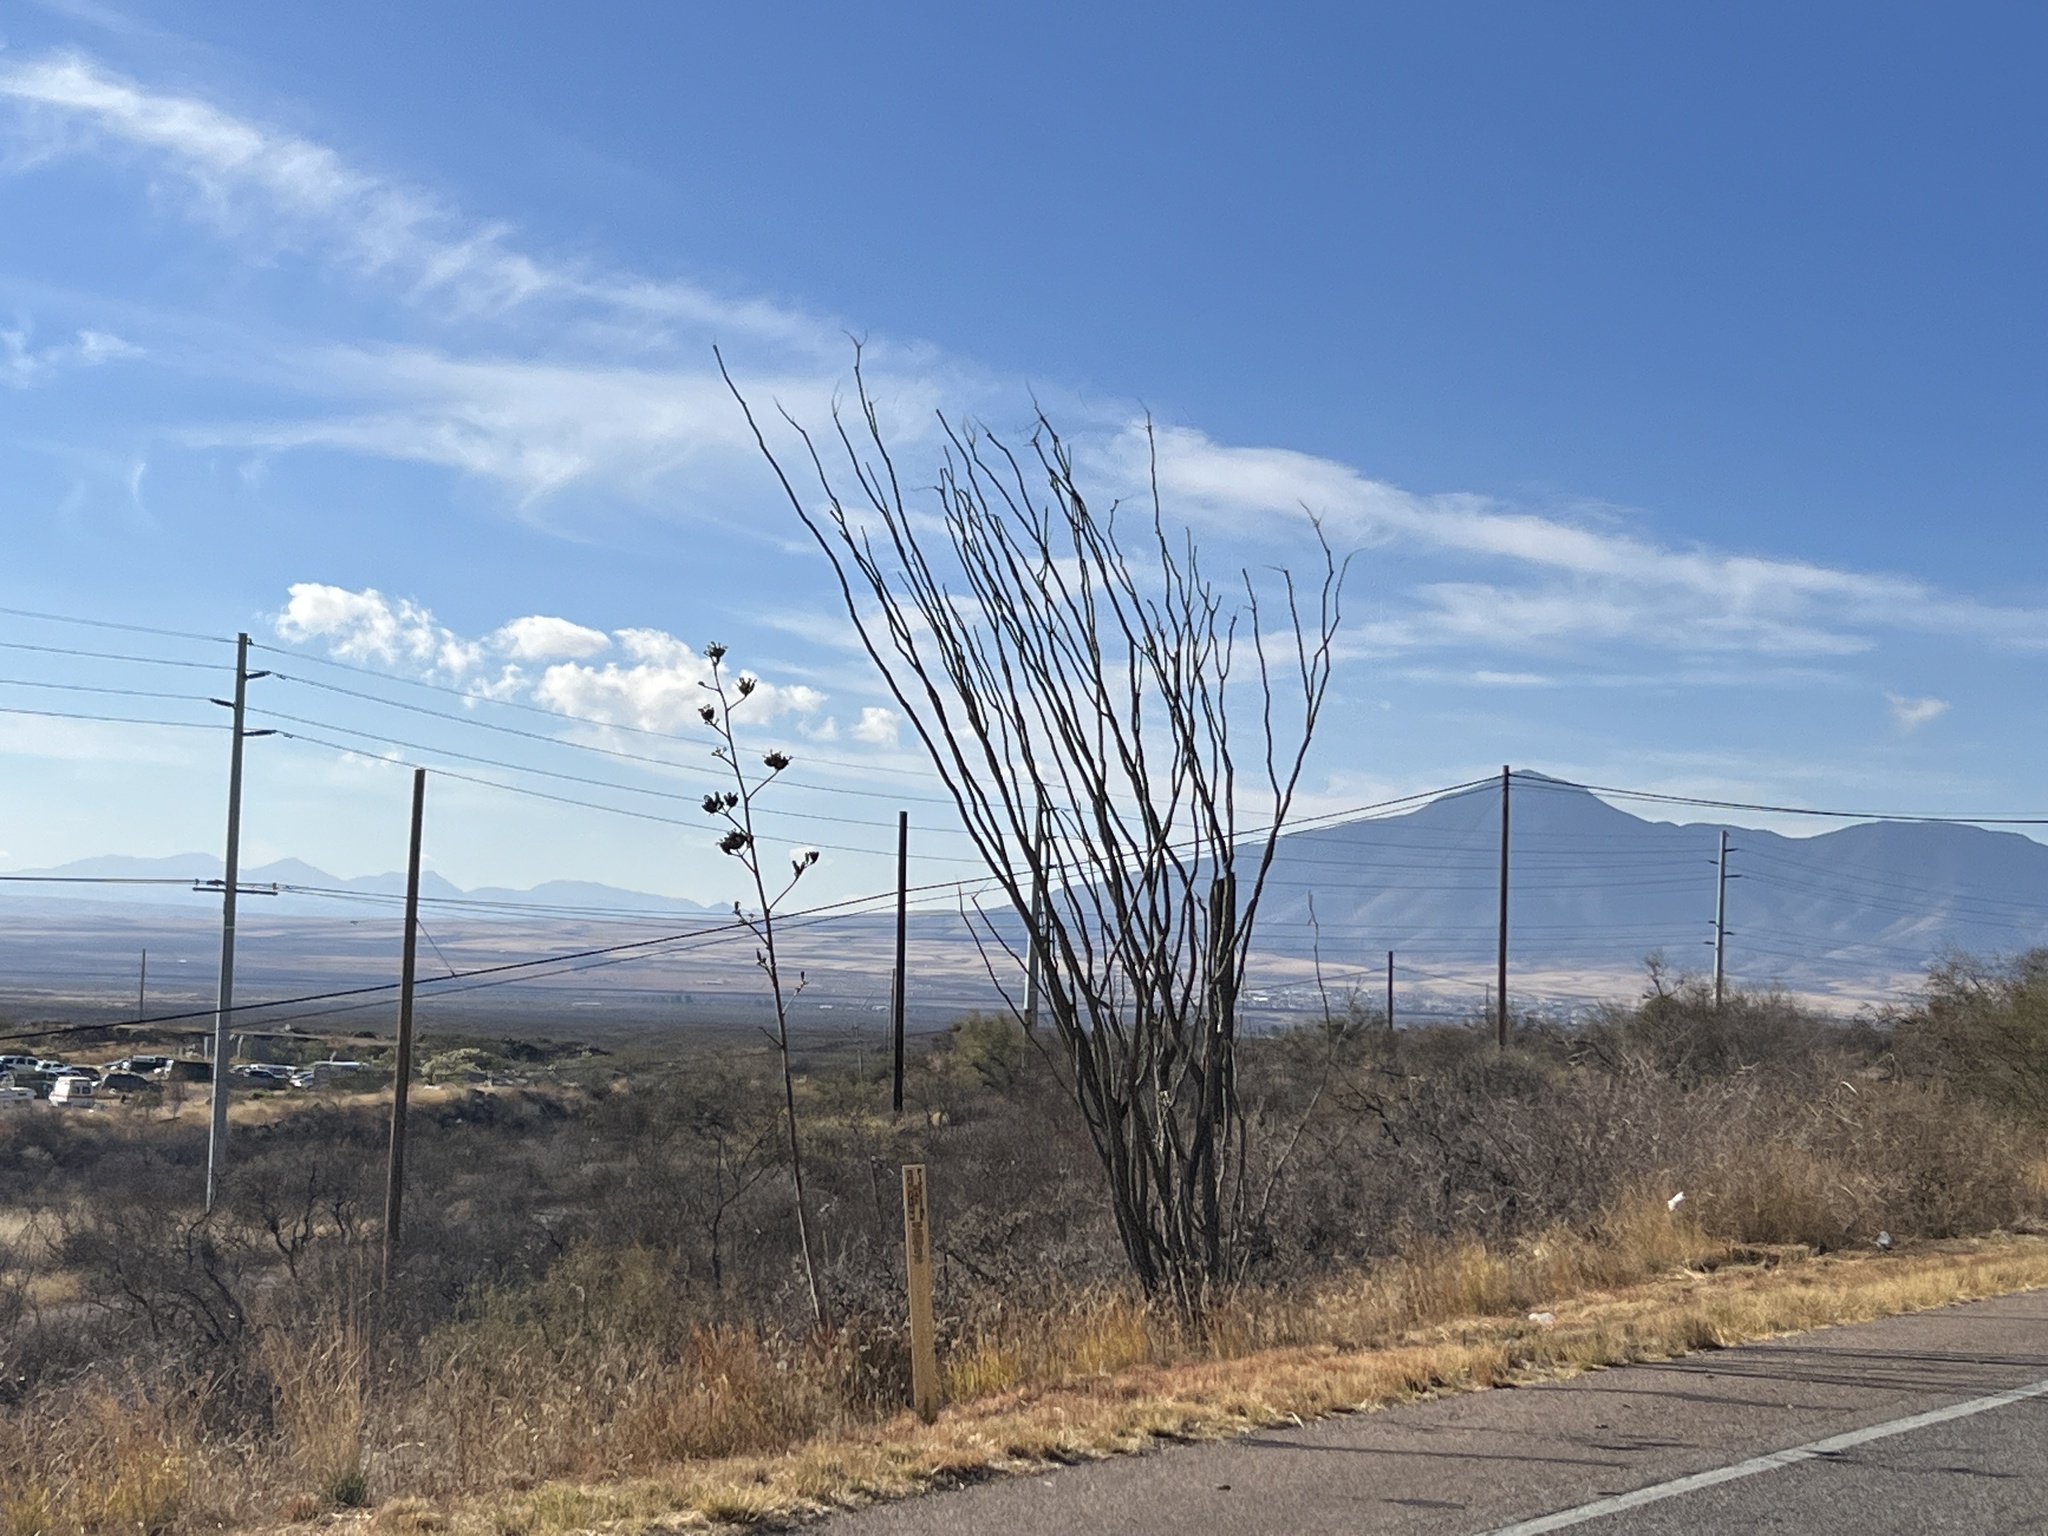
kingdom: Plantae
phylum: Tracheophyta
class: Magnoliopsida
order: Ericales
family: Fouquieriaceae
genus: Fouquieria
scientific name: Fouquieria splendens
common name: Vine-cactus
